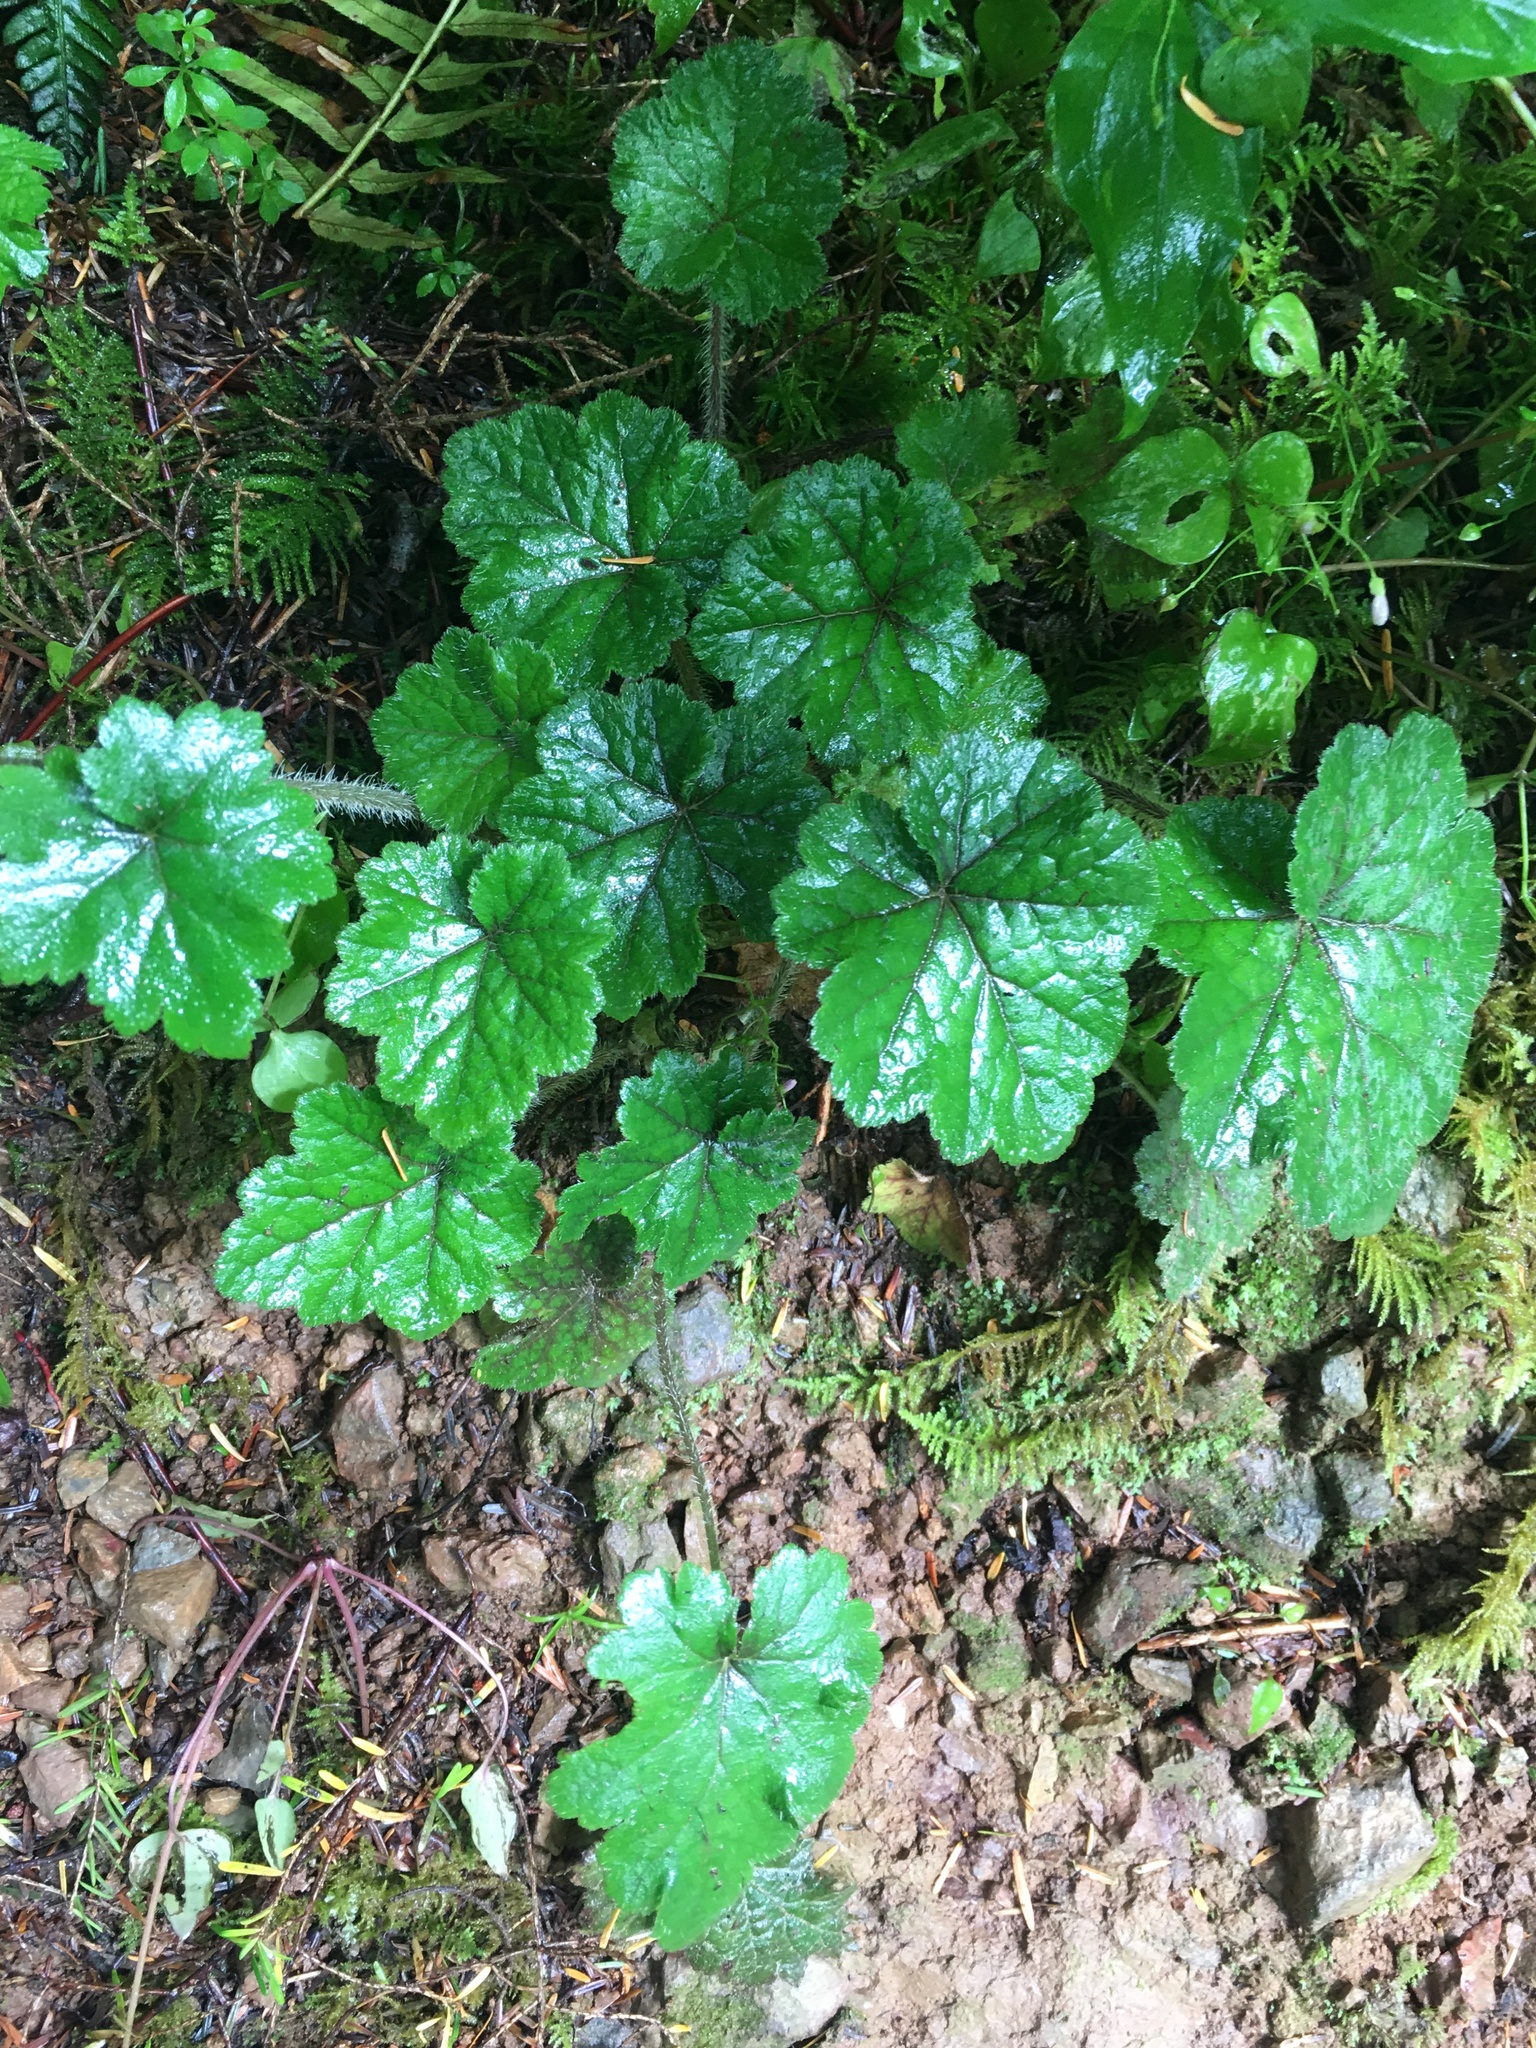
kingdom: Plantae
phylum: Tracheophyta
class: Magnoliopsida
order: Saxifragales
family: Saxifragaceae
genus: Tellima
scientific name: Tellima grandiflora
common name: Fringecups
